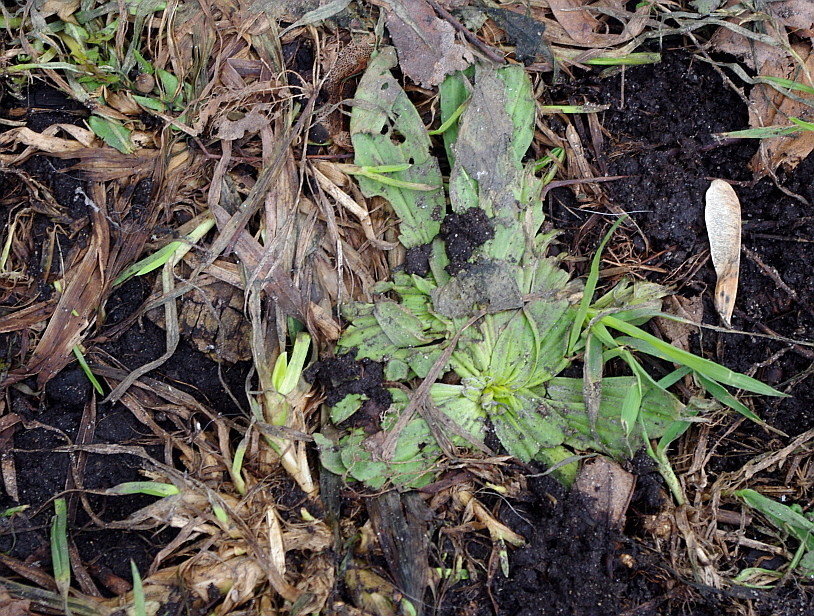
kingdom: Plantae
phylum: Tracheophyta
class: Magnoliopsida
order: Lamiales
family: Plantaginaceae
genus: Plantago
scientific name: Plantago lanceolata
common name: Ribwort plantain
